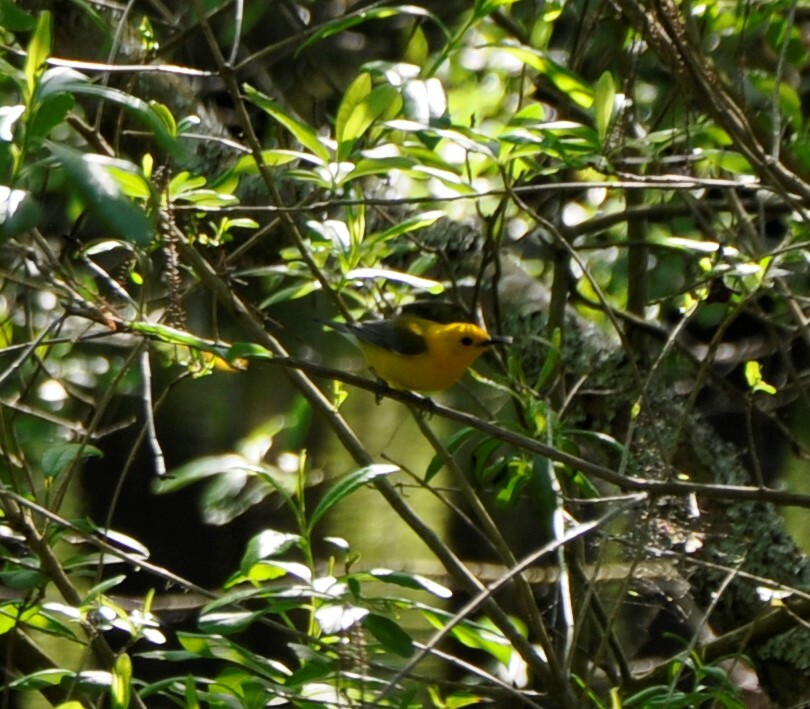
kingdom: Animalia
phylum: Chordata
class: Aves
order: Passeriformes
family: Parulidae
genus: Protonotaria
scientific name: Protonotaria citrea
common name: Prothonotary warbler
